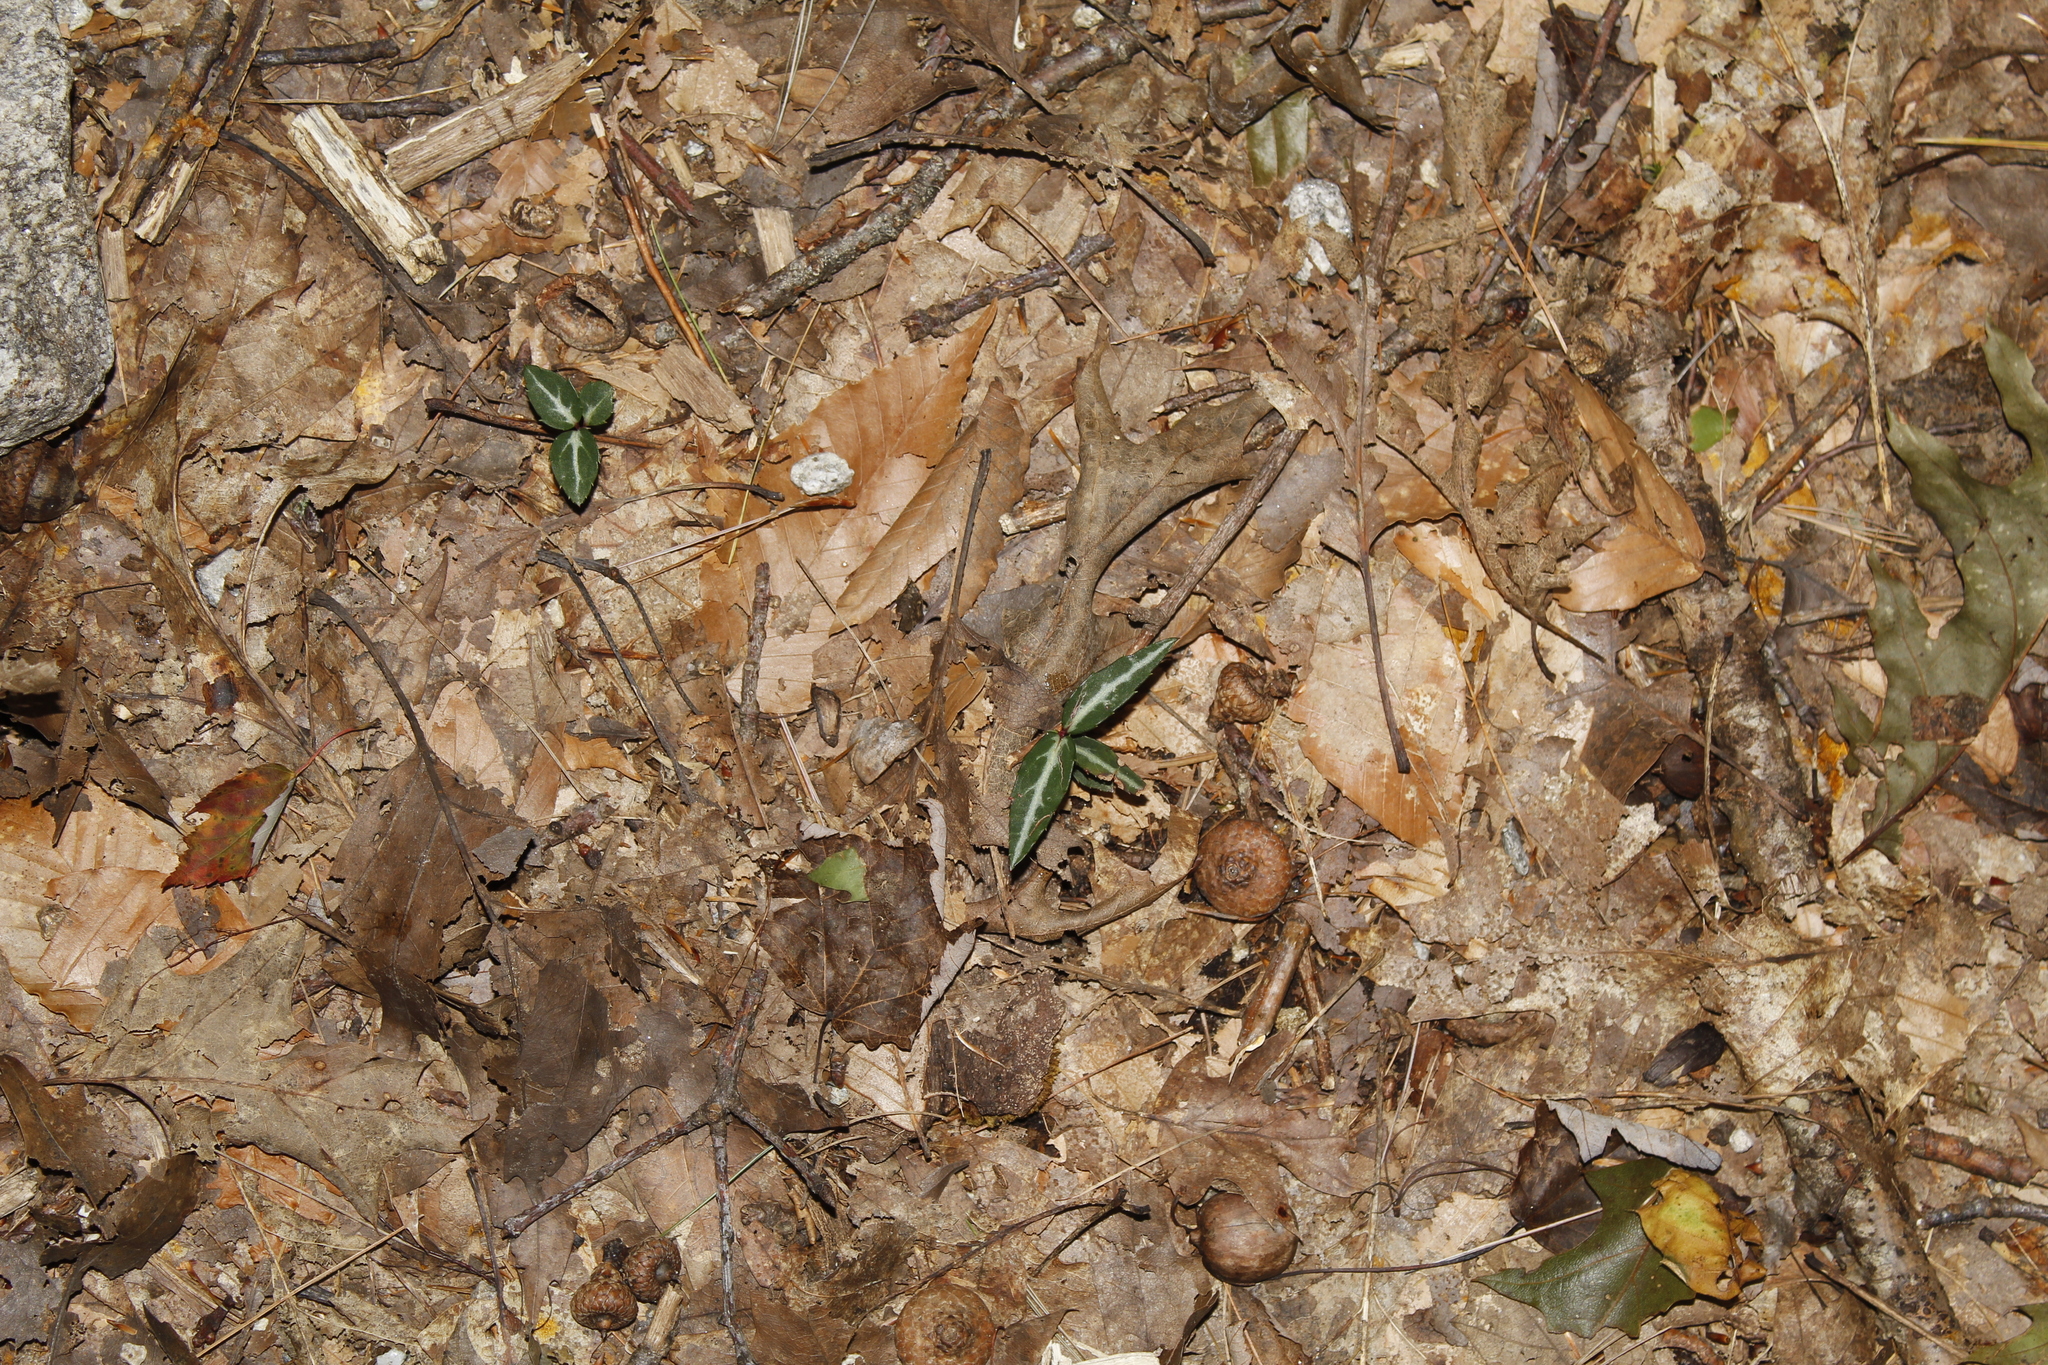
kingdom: Plantae
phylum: Tracheophyta
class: Magnoliopsida
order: Ericales
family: Ericaceae
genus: Chimaphila
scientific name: Chimaphila maculata
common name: Spotted pipsissewa
